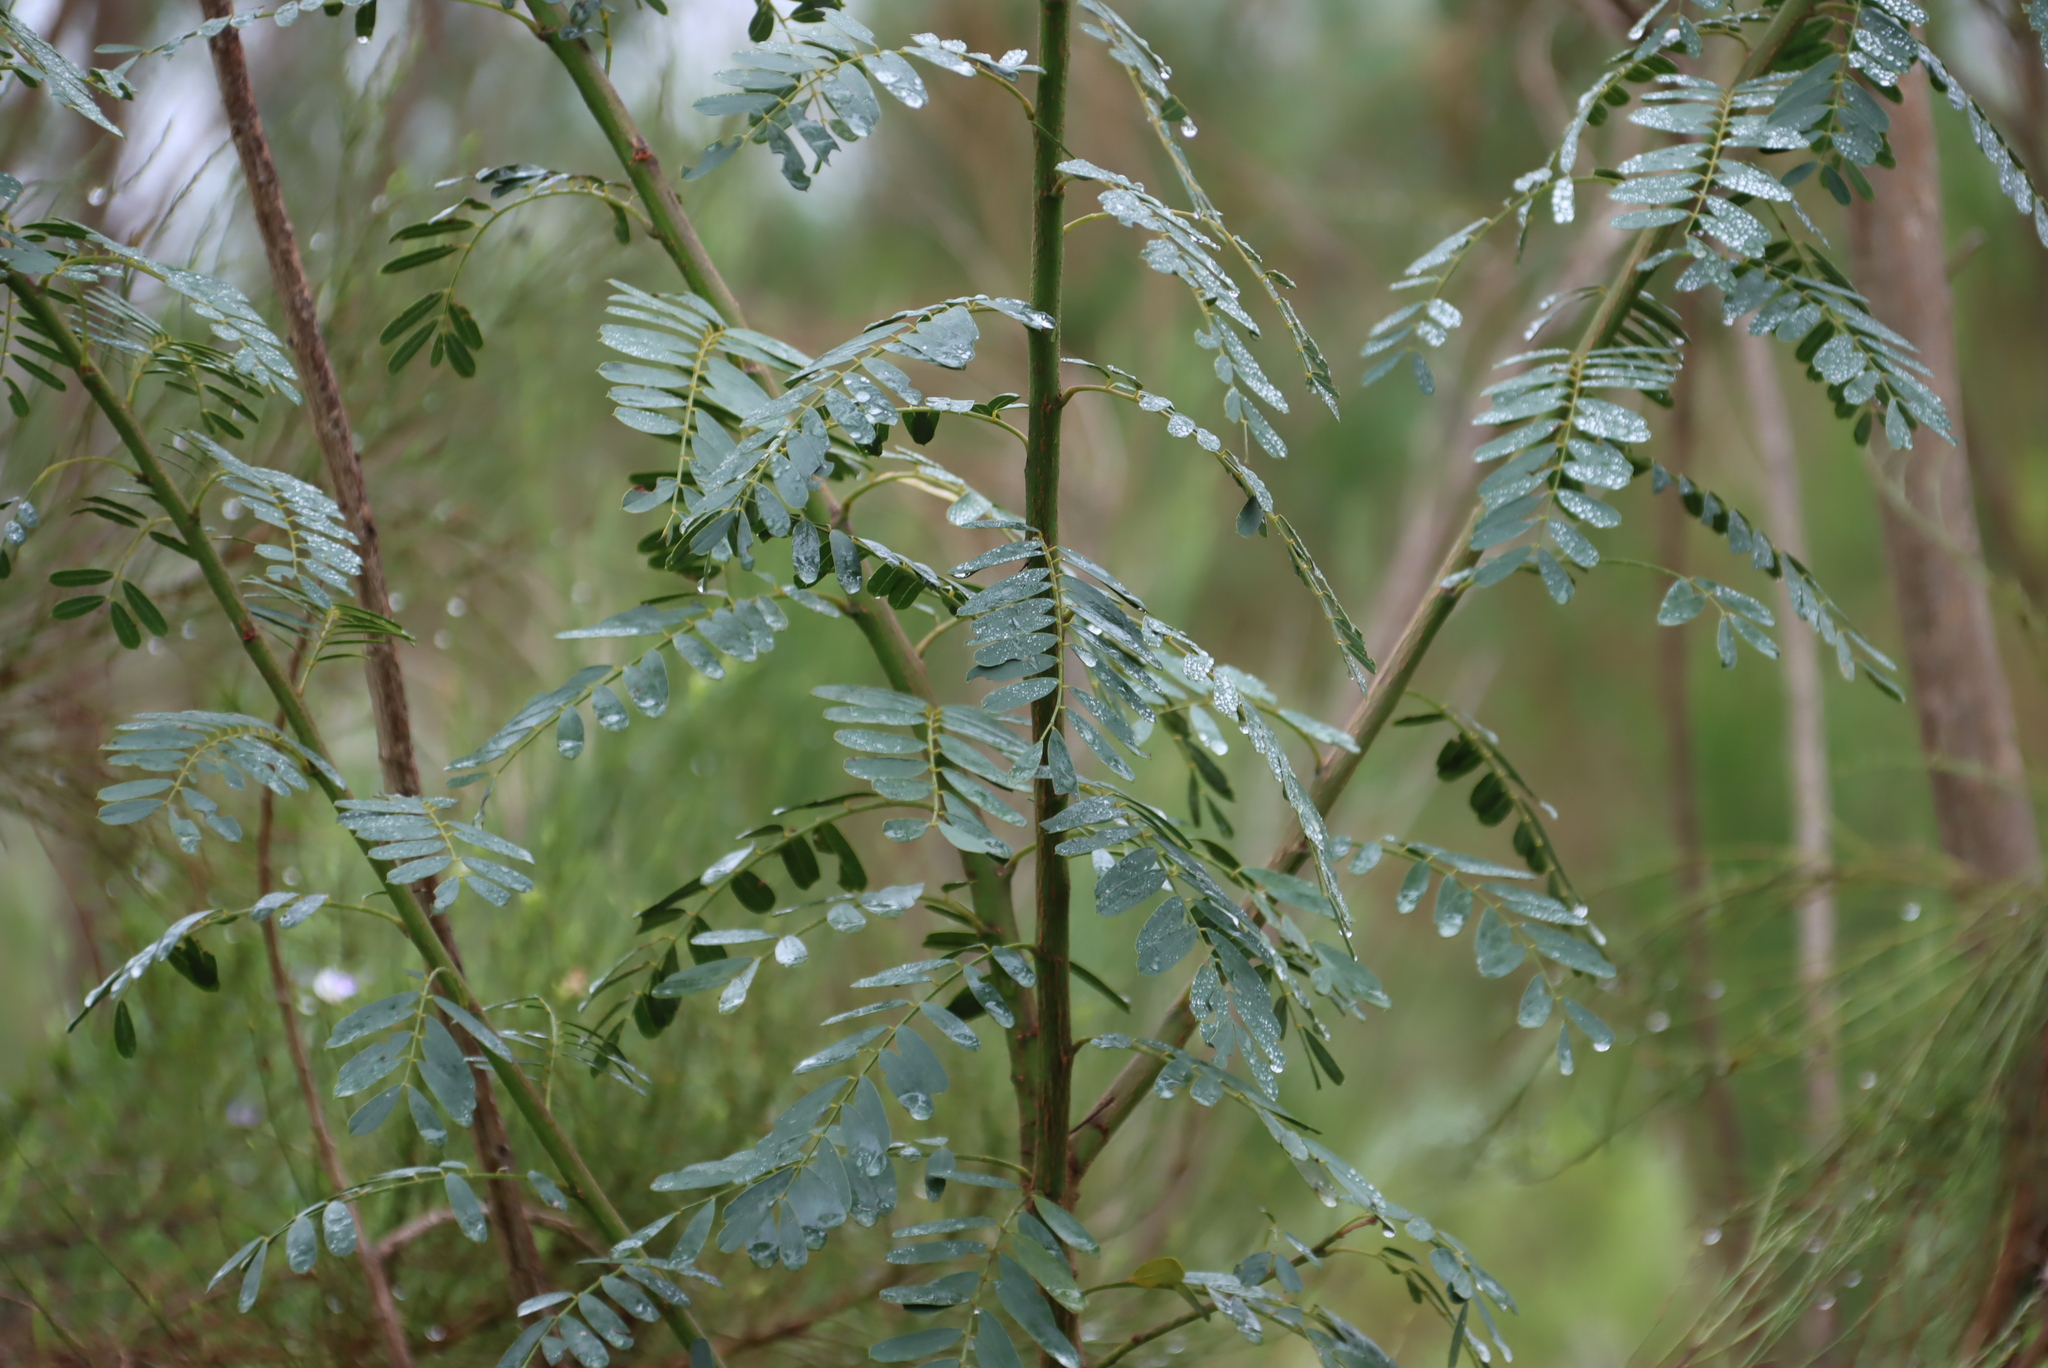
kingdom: Plantae
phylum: Tracheophyta
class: Magnoliopsida
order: Fabales
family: Fabaceae
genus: Sesbania
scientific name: Sesbania punicea
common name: Rattlebox
